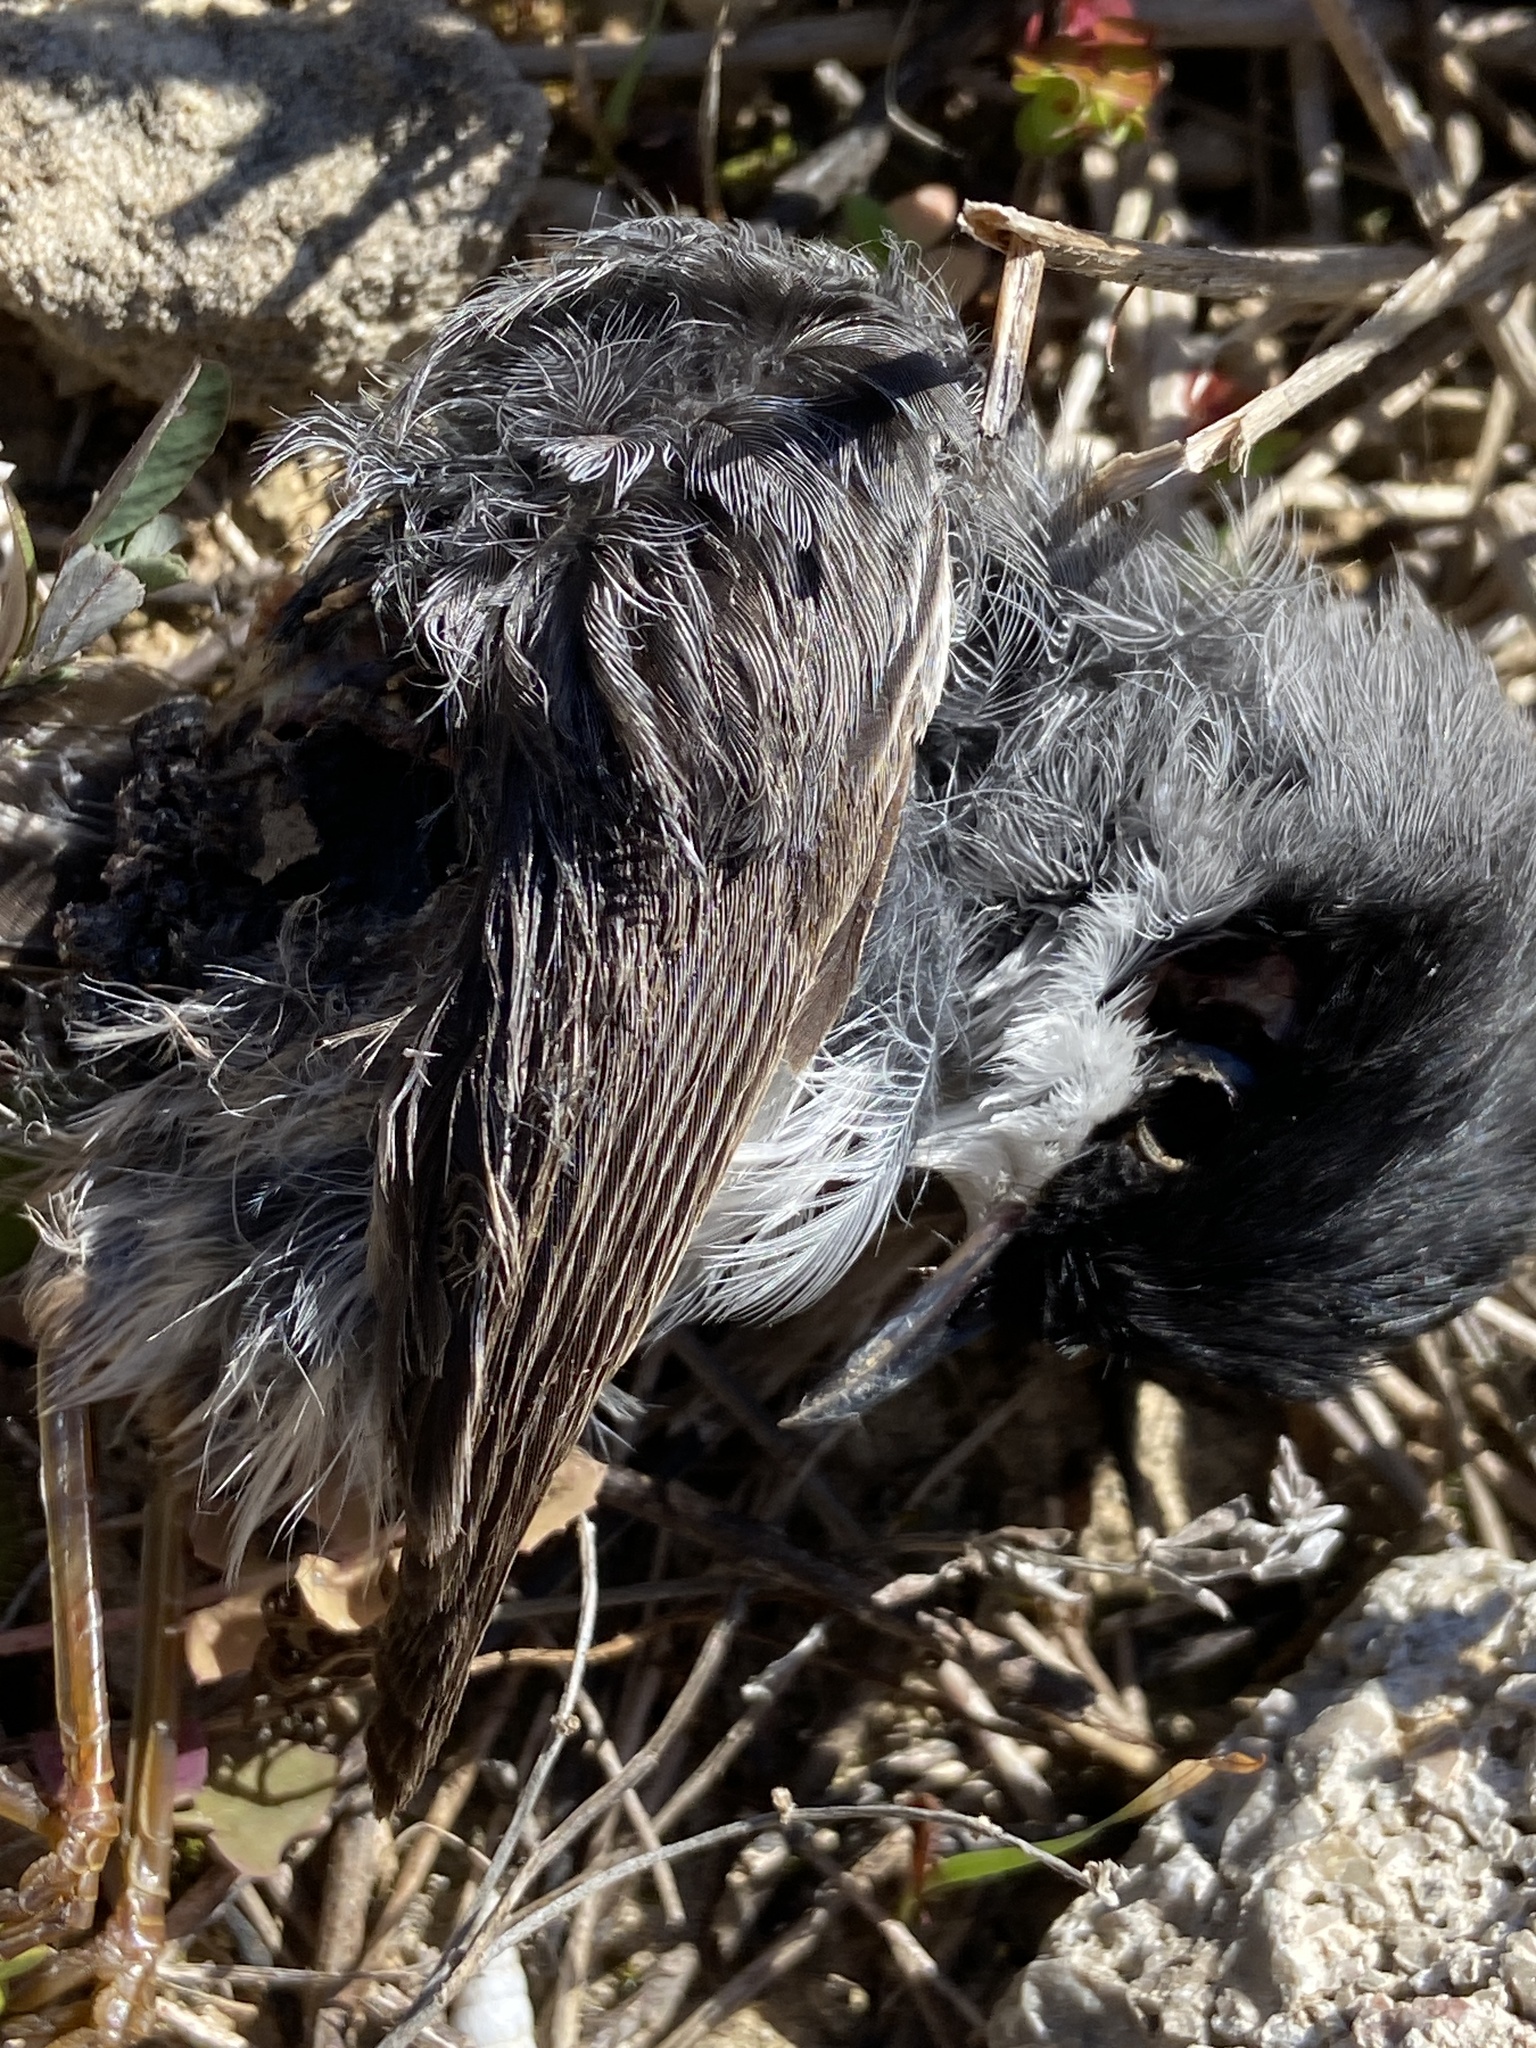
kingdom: Animalia
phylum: Chordata
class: Aves
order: Passeriformes
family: Sylviidae
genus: Curruca
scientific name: Curruca melanocephala
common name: Sardinian warbler
